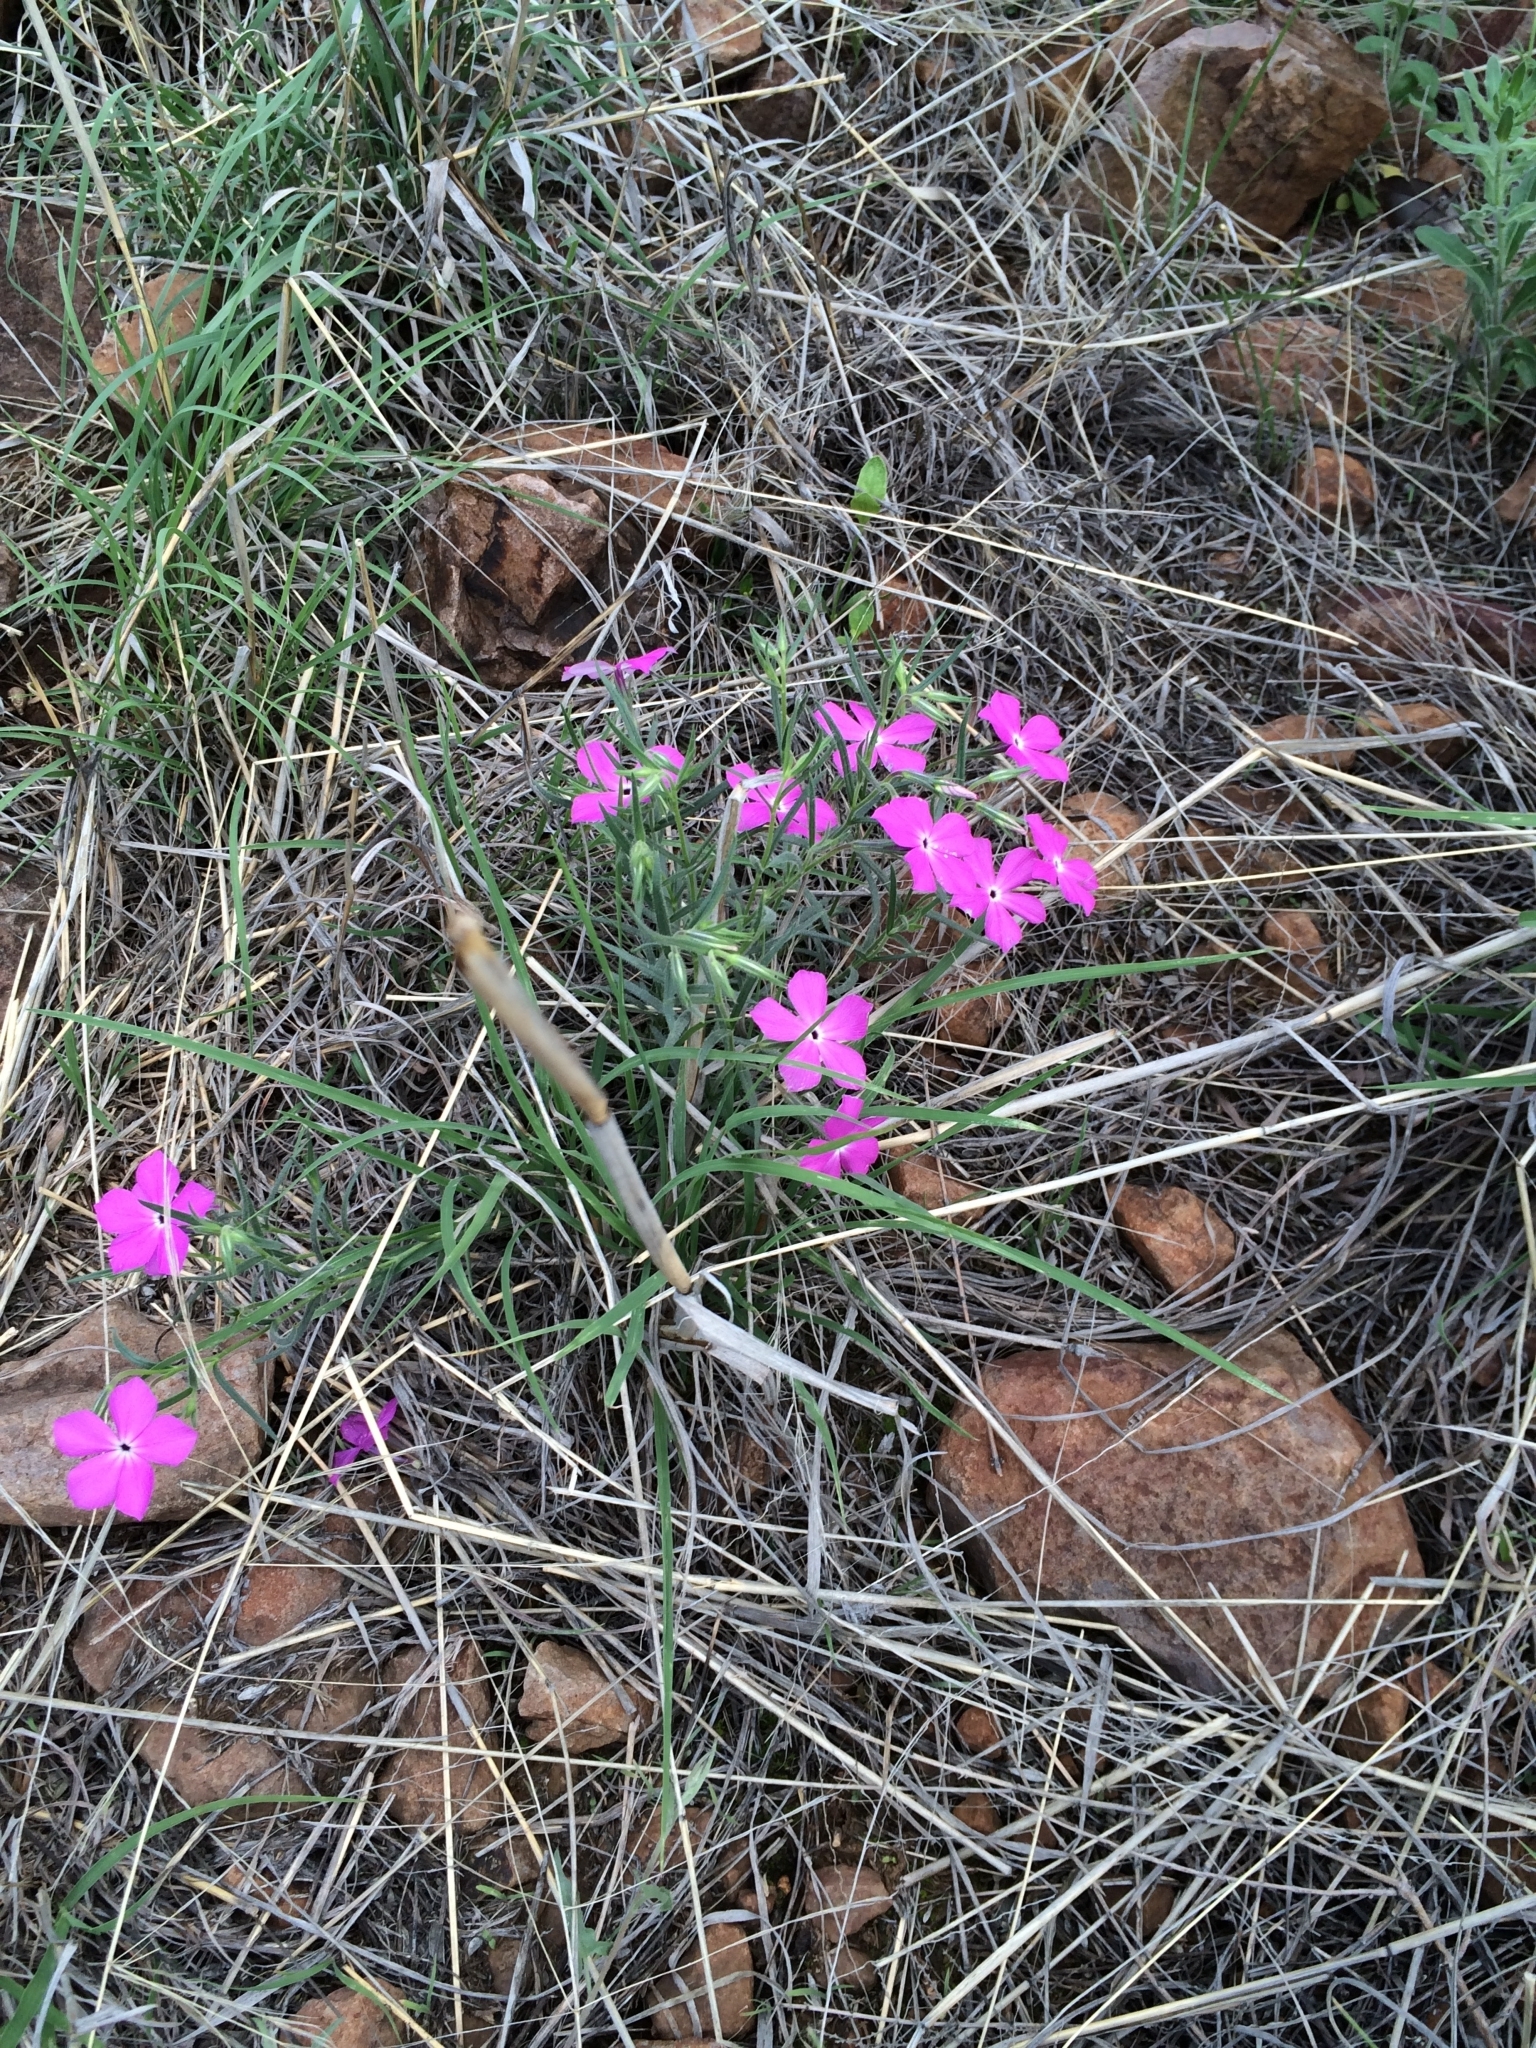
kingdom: Plantae
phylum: Tracheophyta
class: Magnoliopsida
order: Ericales
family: Polemoniaceae
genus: Phlox
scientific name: Phlox nana
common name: Santa fe phlox
